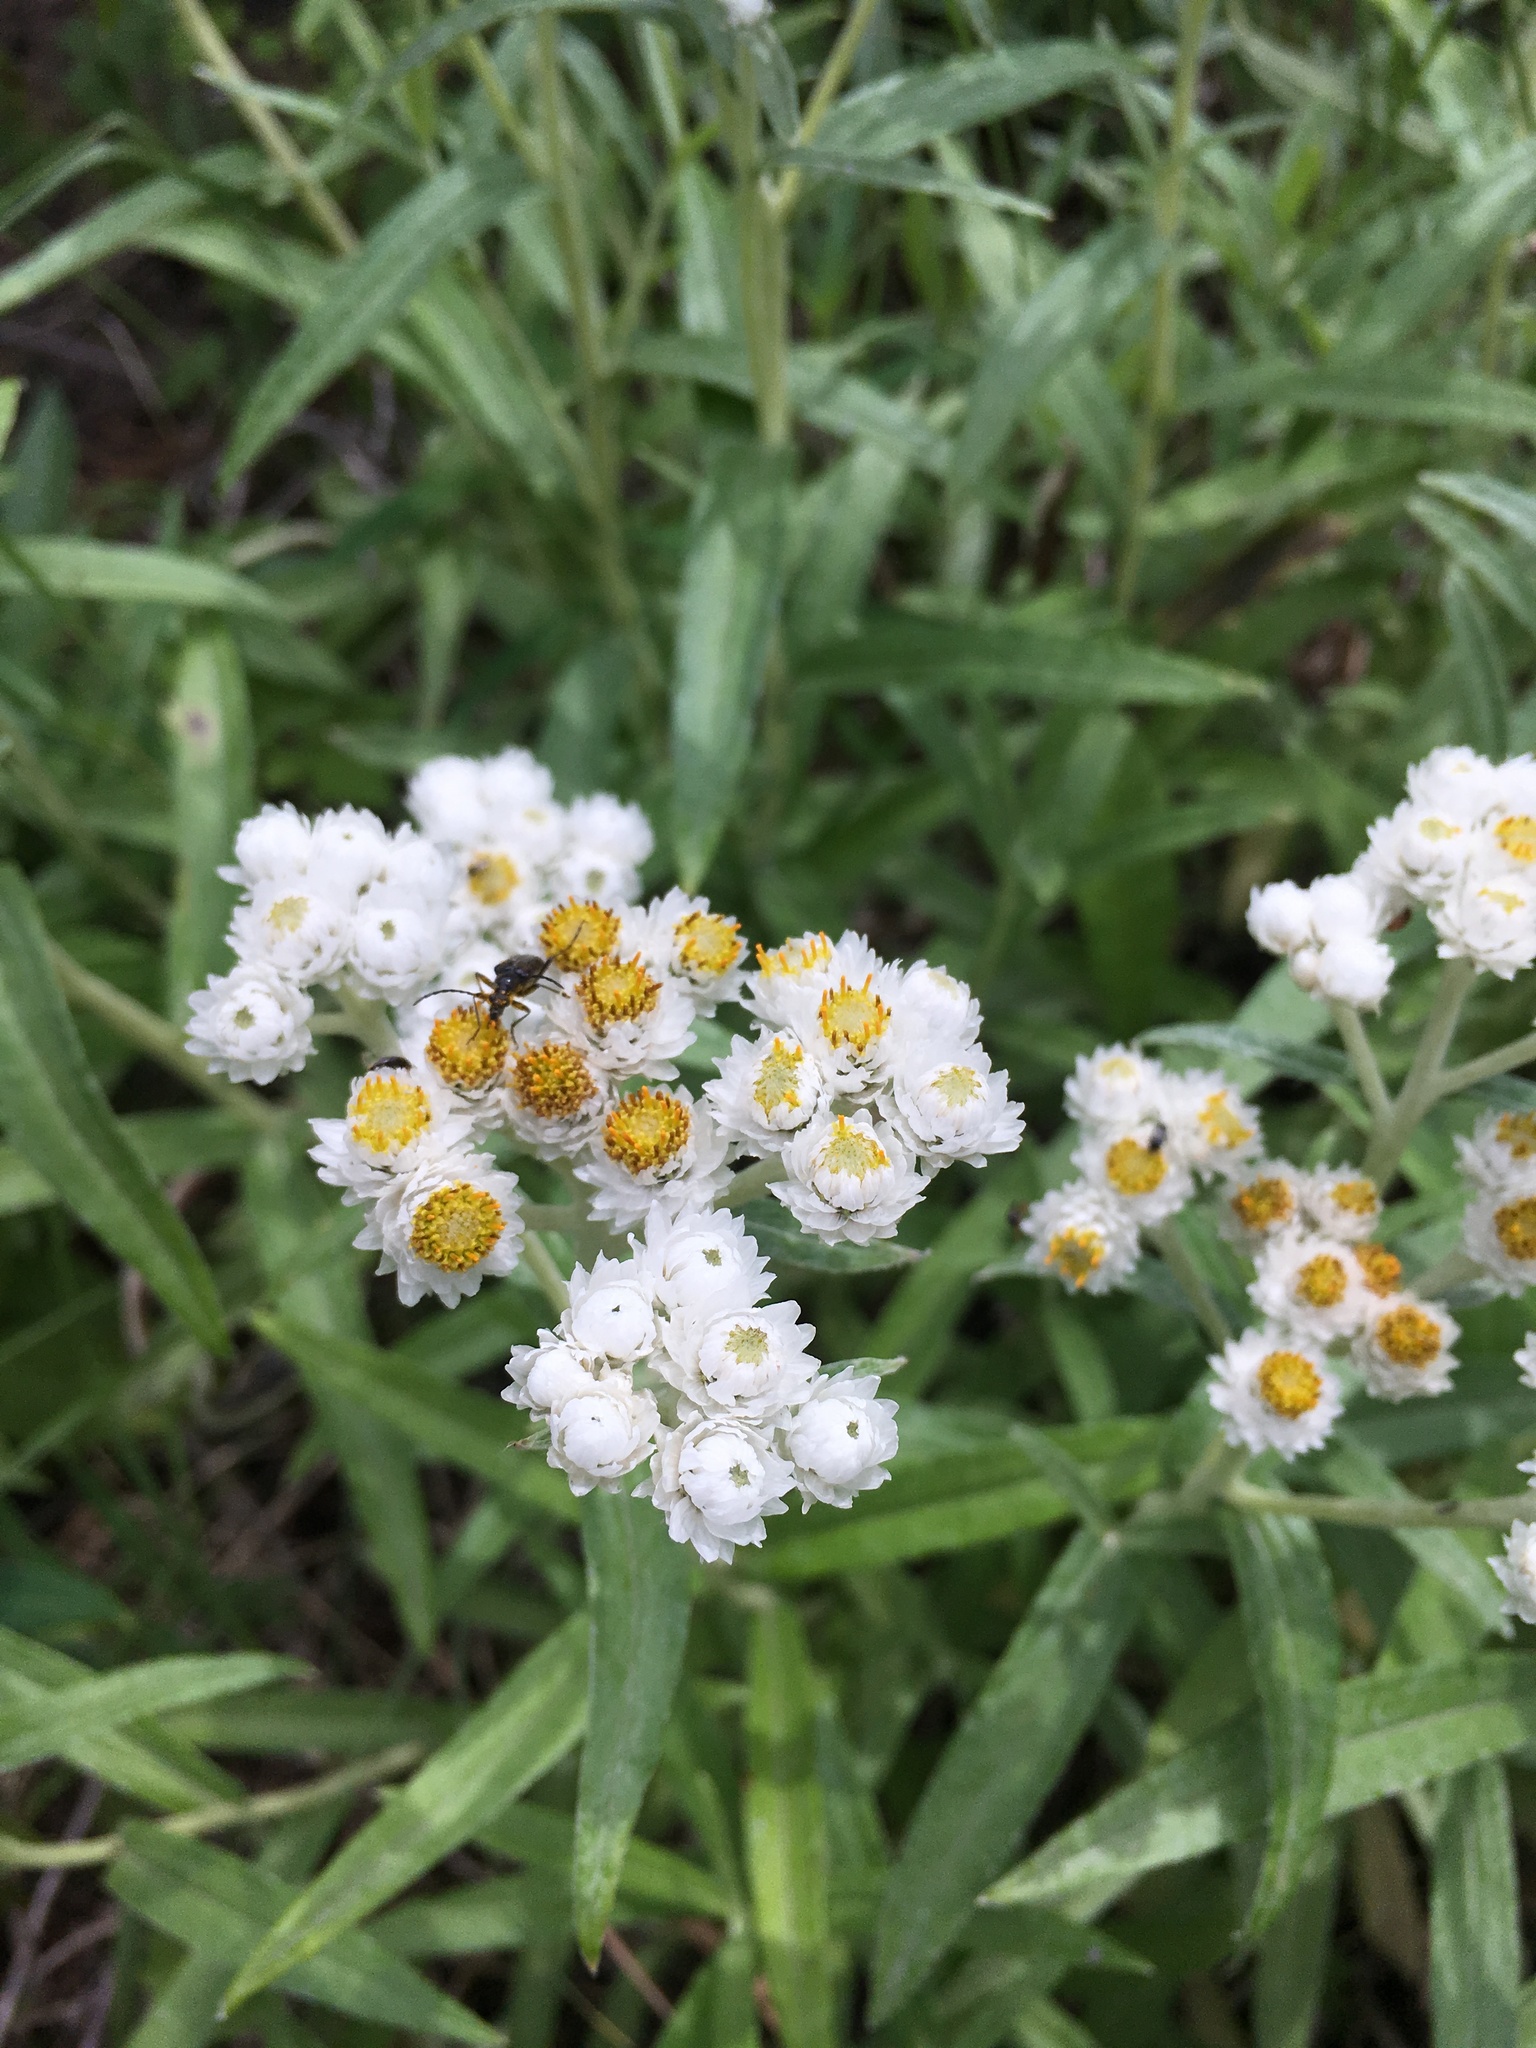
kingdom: Plantae
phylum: Tracheophyta
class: Magnoliopsida
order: Asterales
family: Asteraceae
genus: Anaphalis
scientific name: Anaphalis margaritacea
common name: Pearly everlasting
